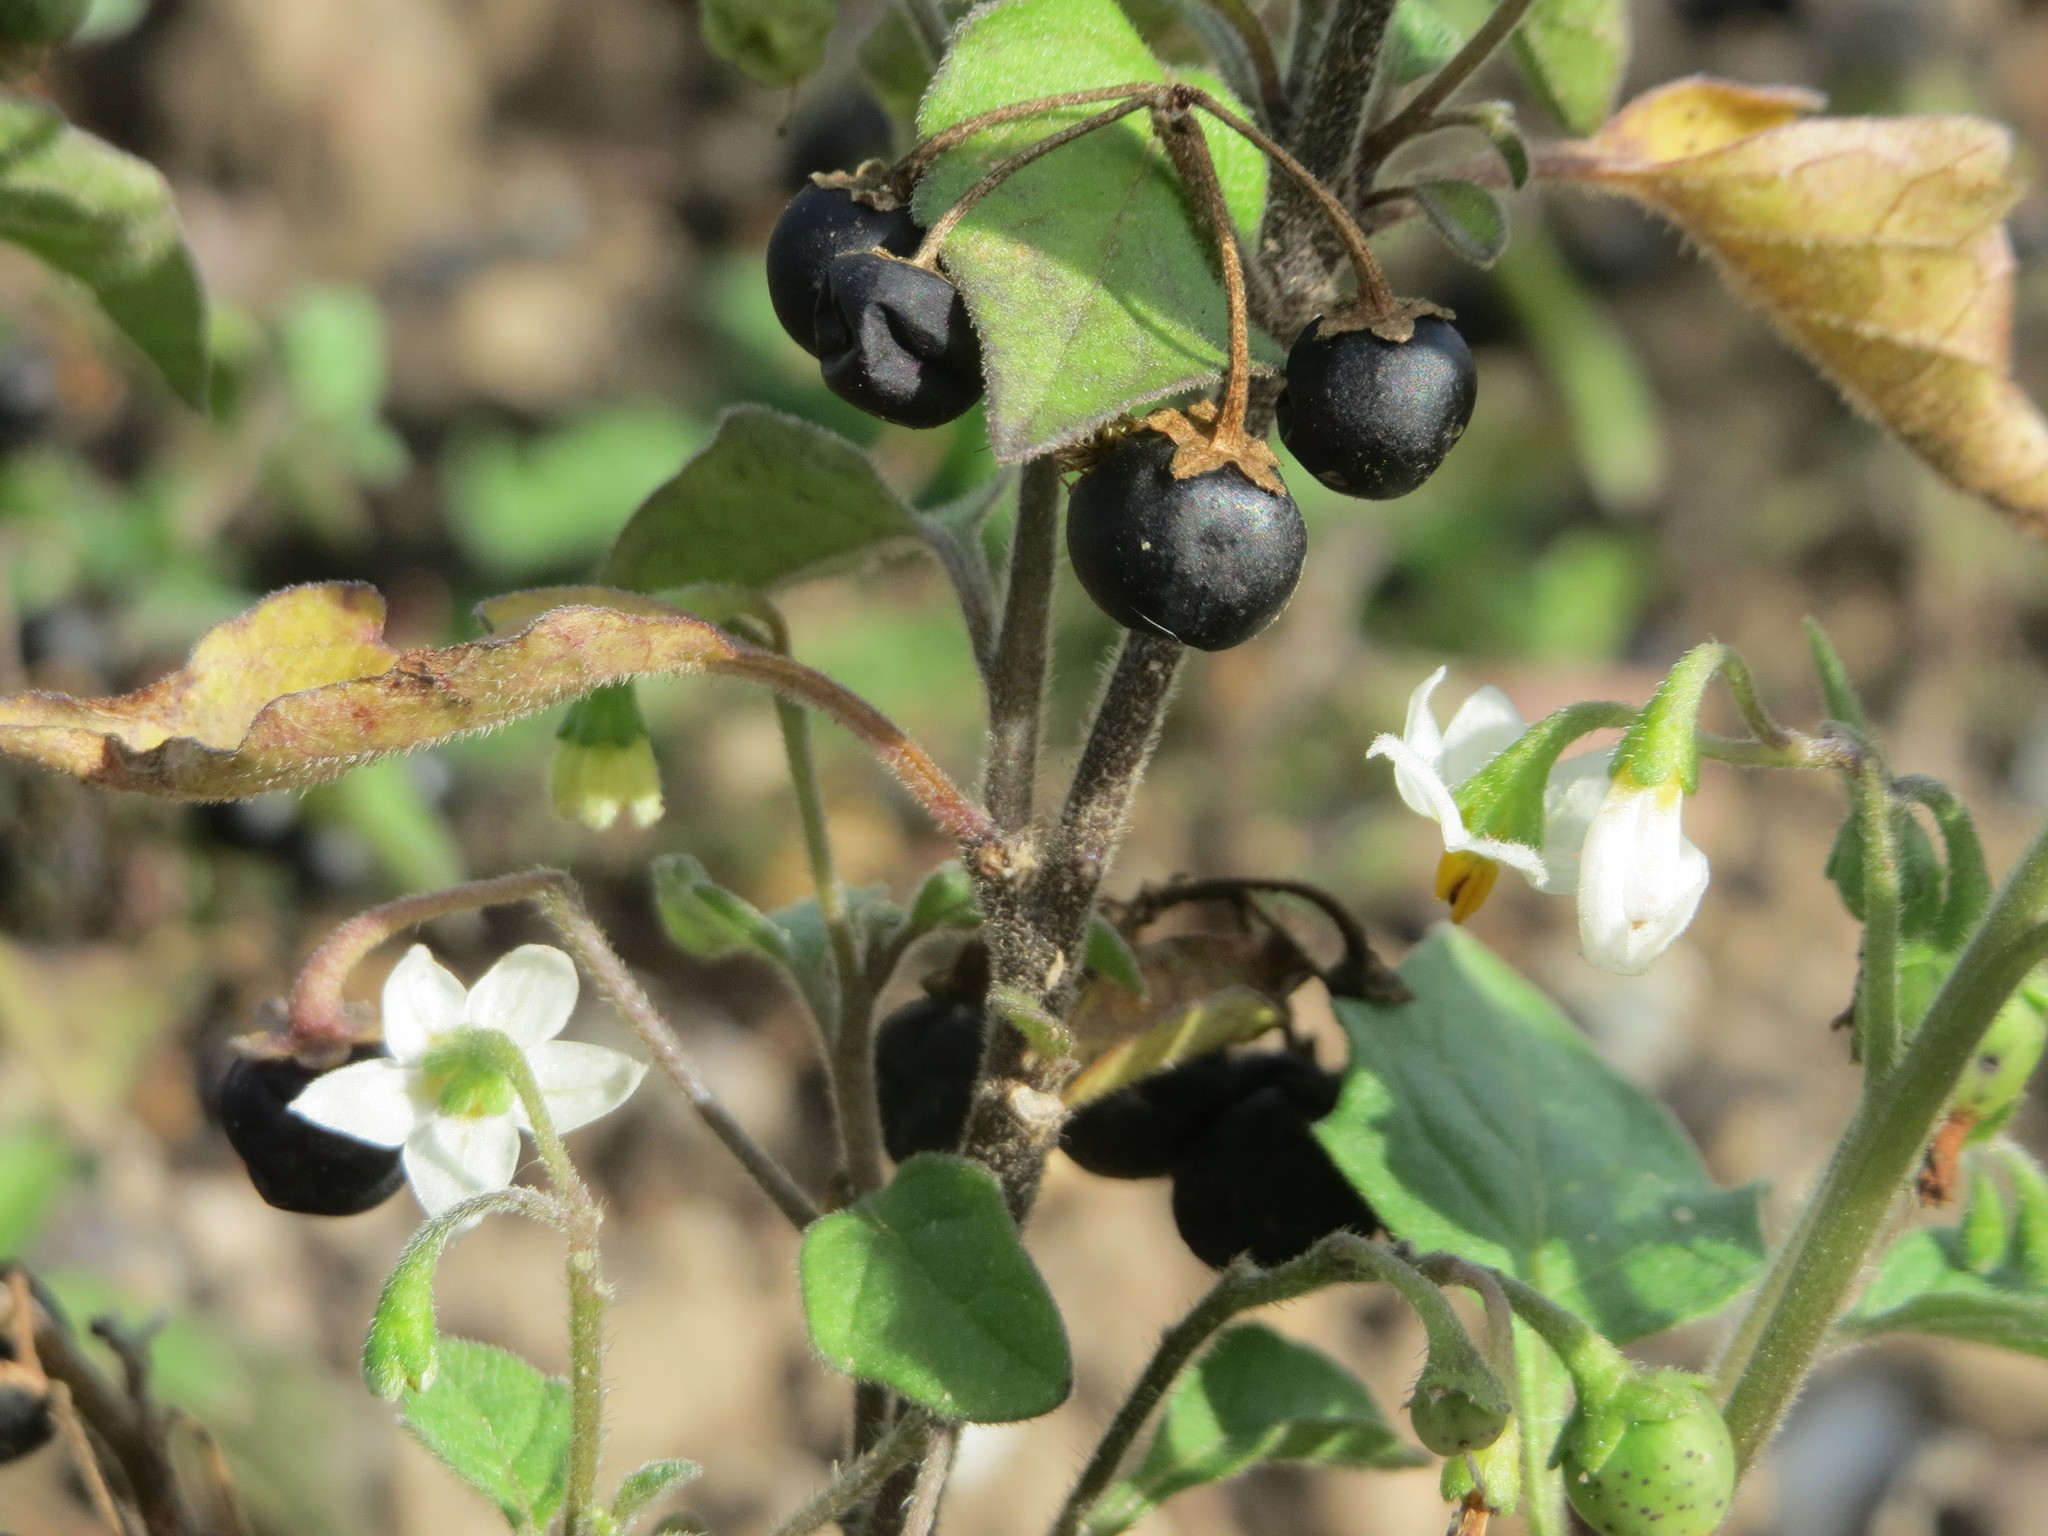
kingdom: Plantae
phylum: Tracheophyta
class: Magnoliopsida
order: Solanales
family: Solanaceae
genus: Solanum
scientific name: Solanum nigrum
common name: Black nightshade
